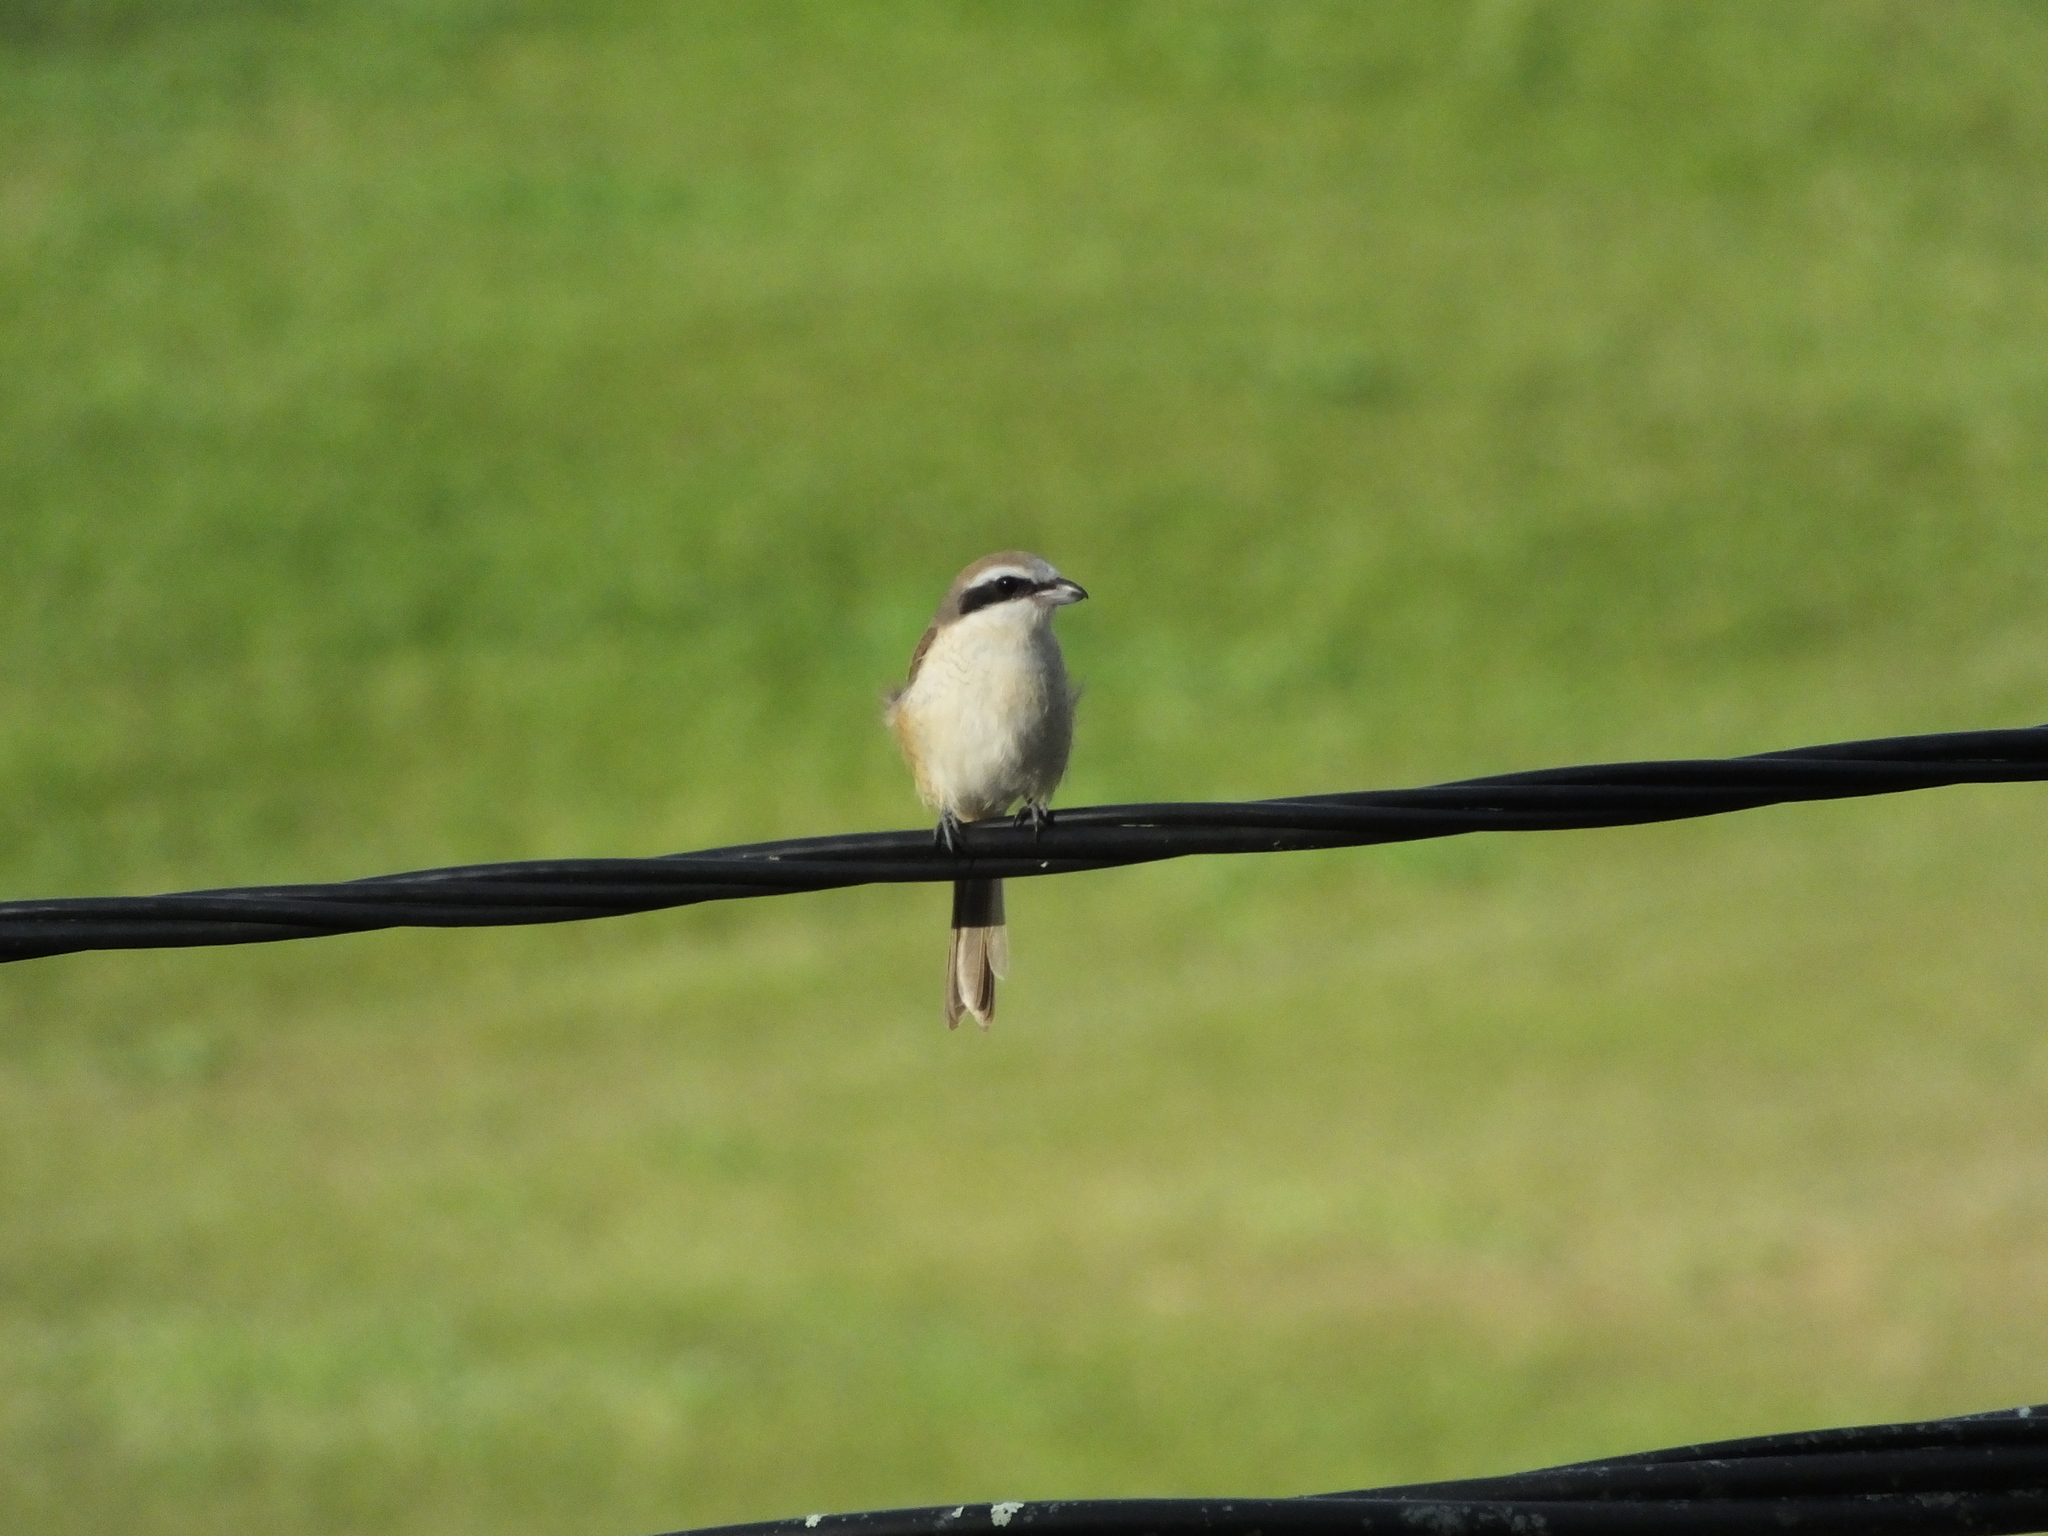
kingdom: Animalia
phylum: Chordata
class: Aves
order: Passeriformes
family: Laniidae
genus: Lanius
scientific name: Lanius cristatus
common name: Brown shrike
